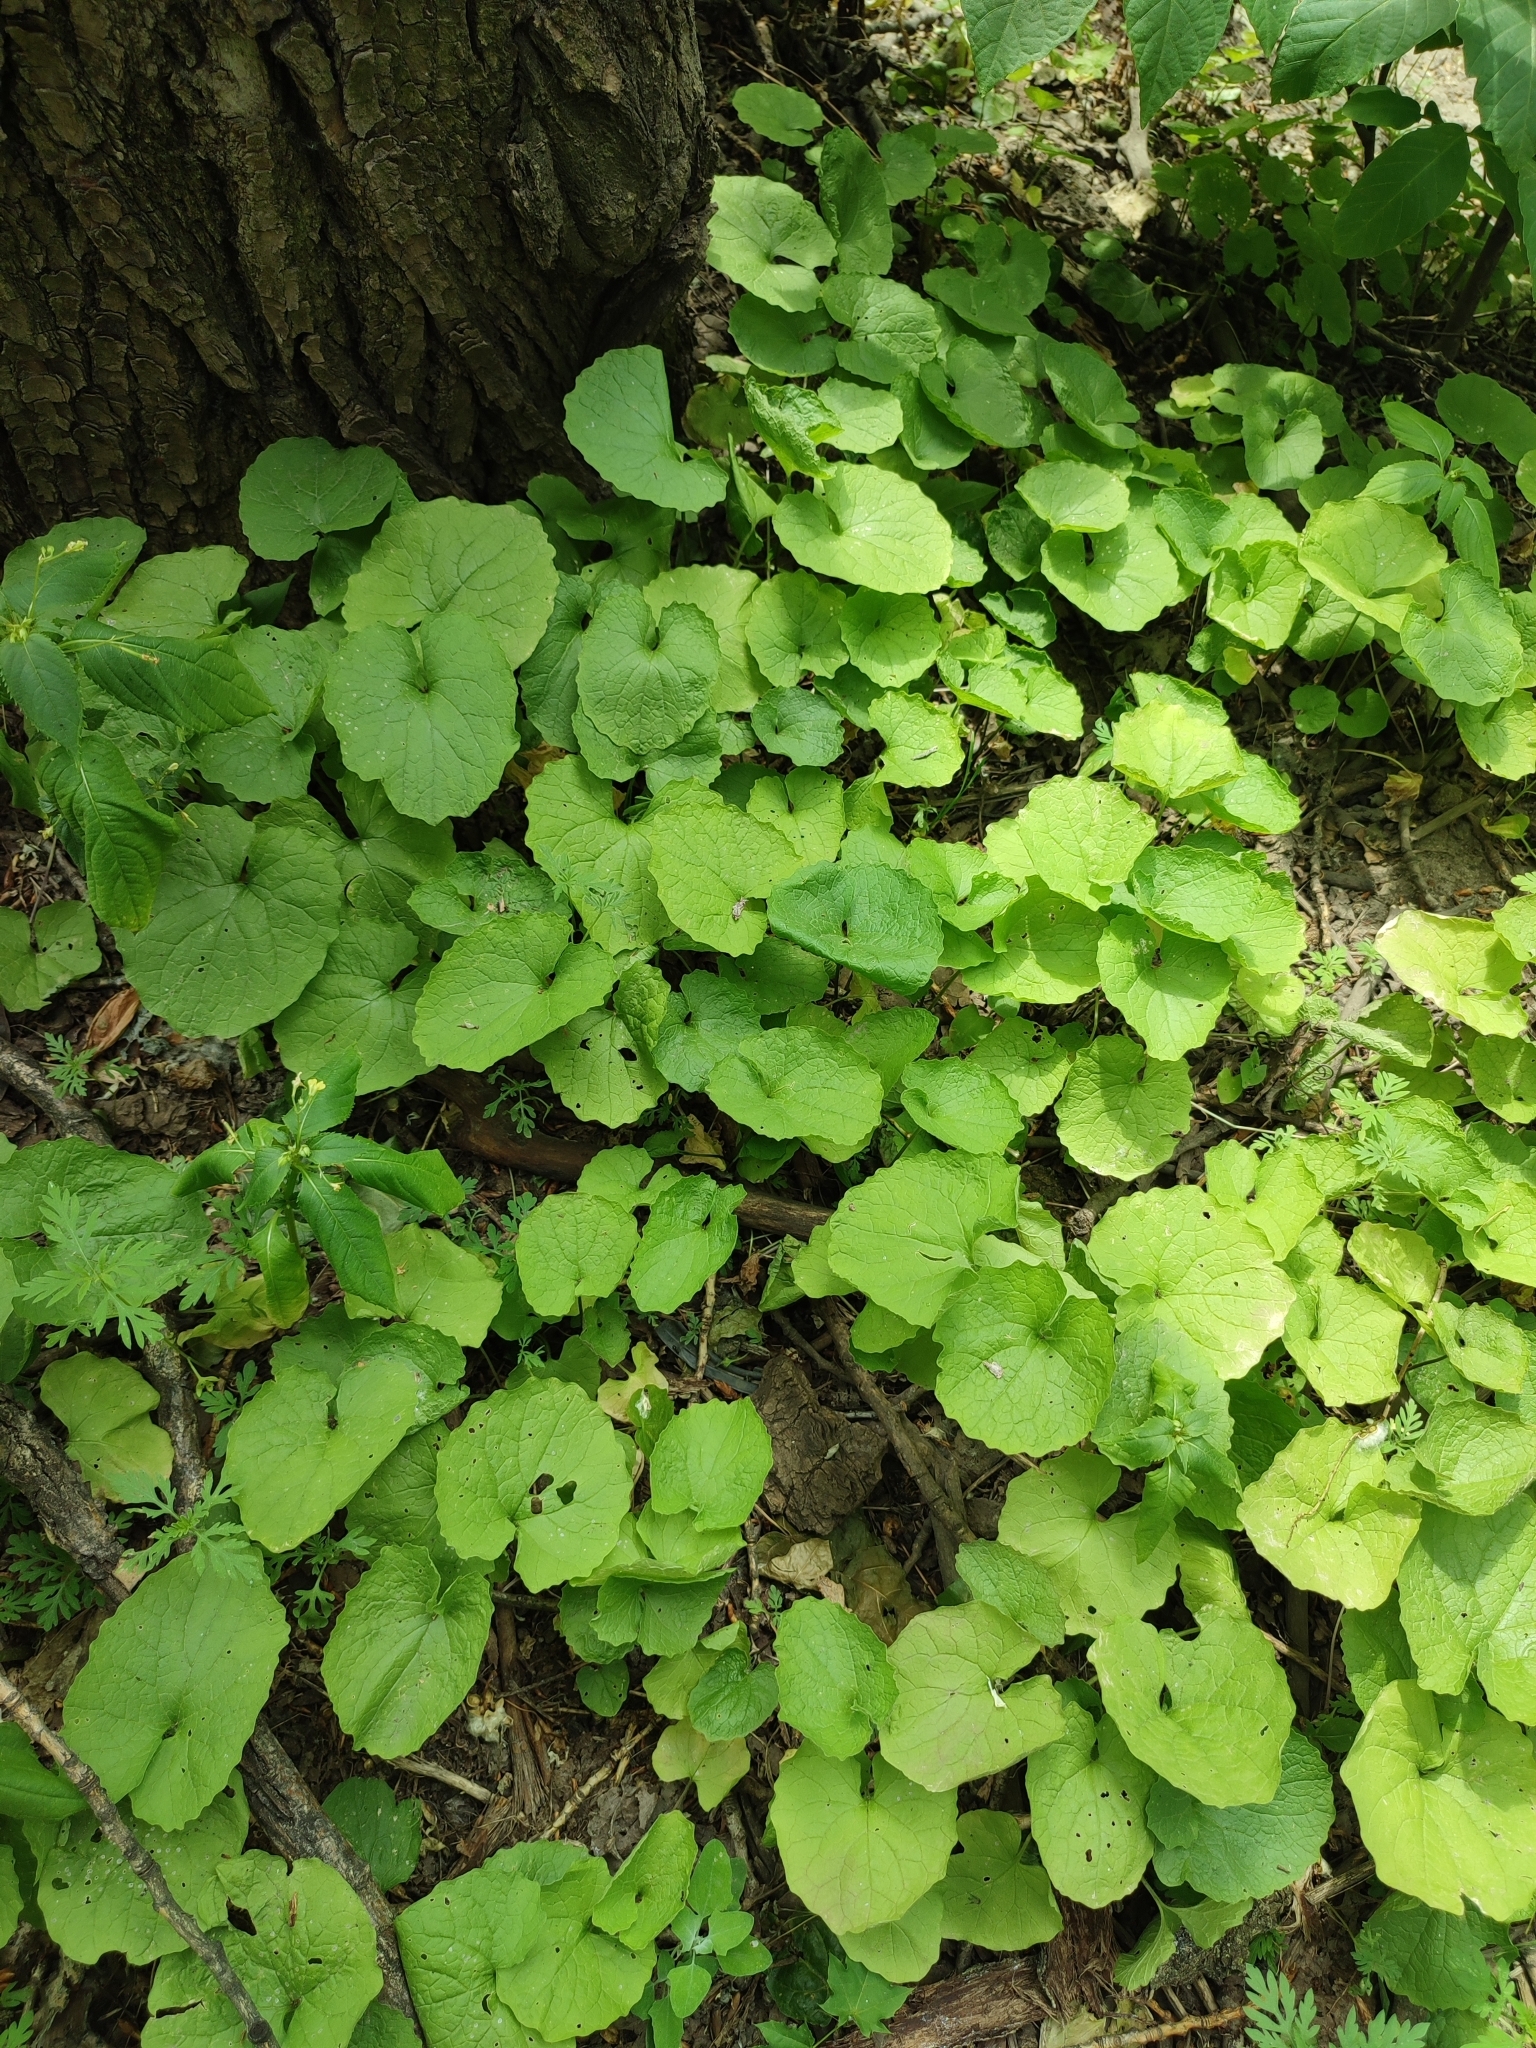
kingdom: Plantae
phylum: Tracheophyta
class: Magnoliopsida
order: Brassicales
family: Brassicaceae
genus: Alliaria
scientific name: Alliaria petiolata
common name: Garlic mustard
